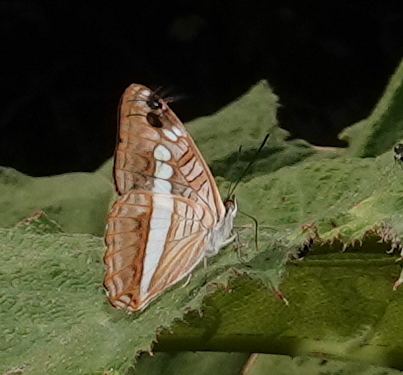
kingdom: Animalia
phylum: Arthropoda
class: Insecta
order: Lepidoptera
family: Nymphalidae
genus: Limenitis
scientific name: Limenitis alala
